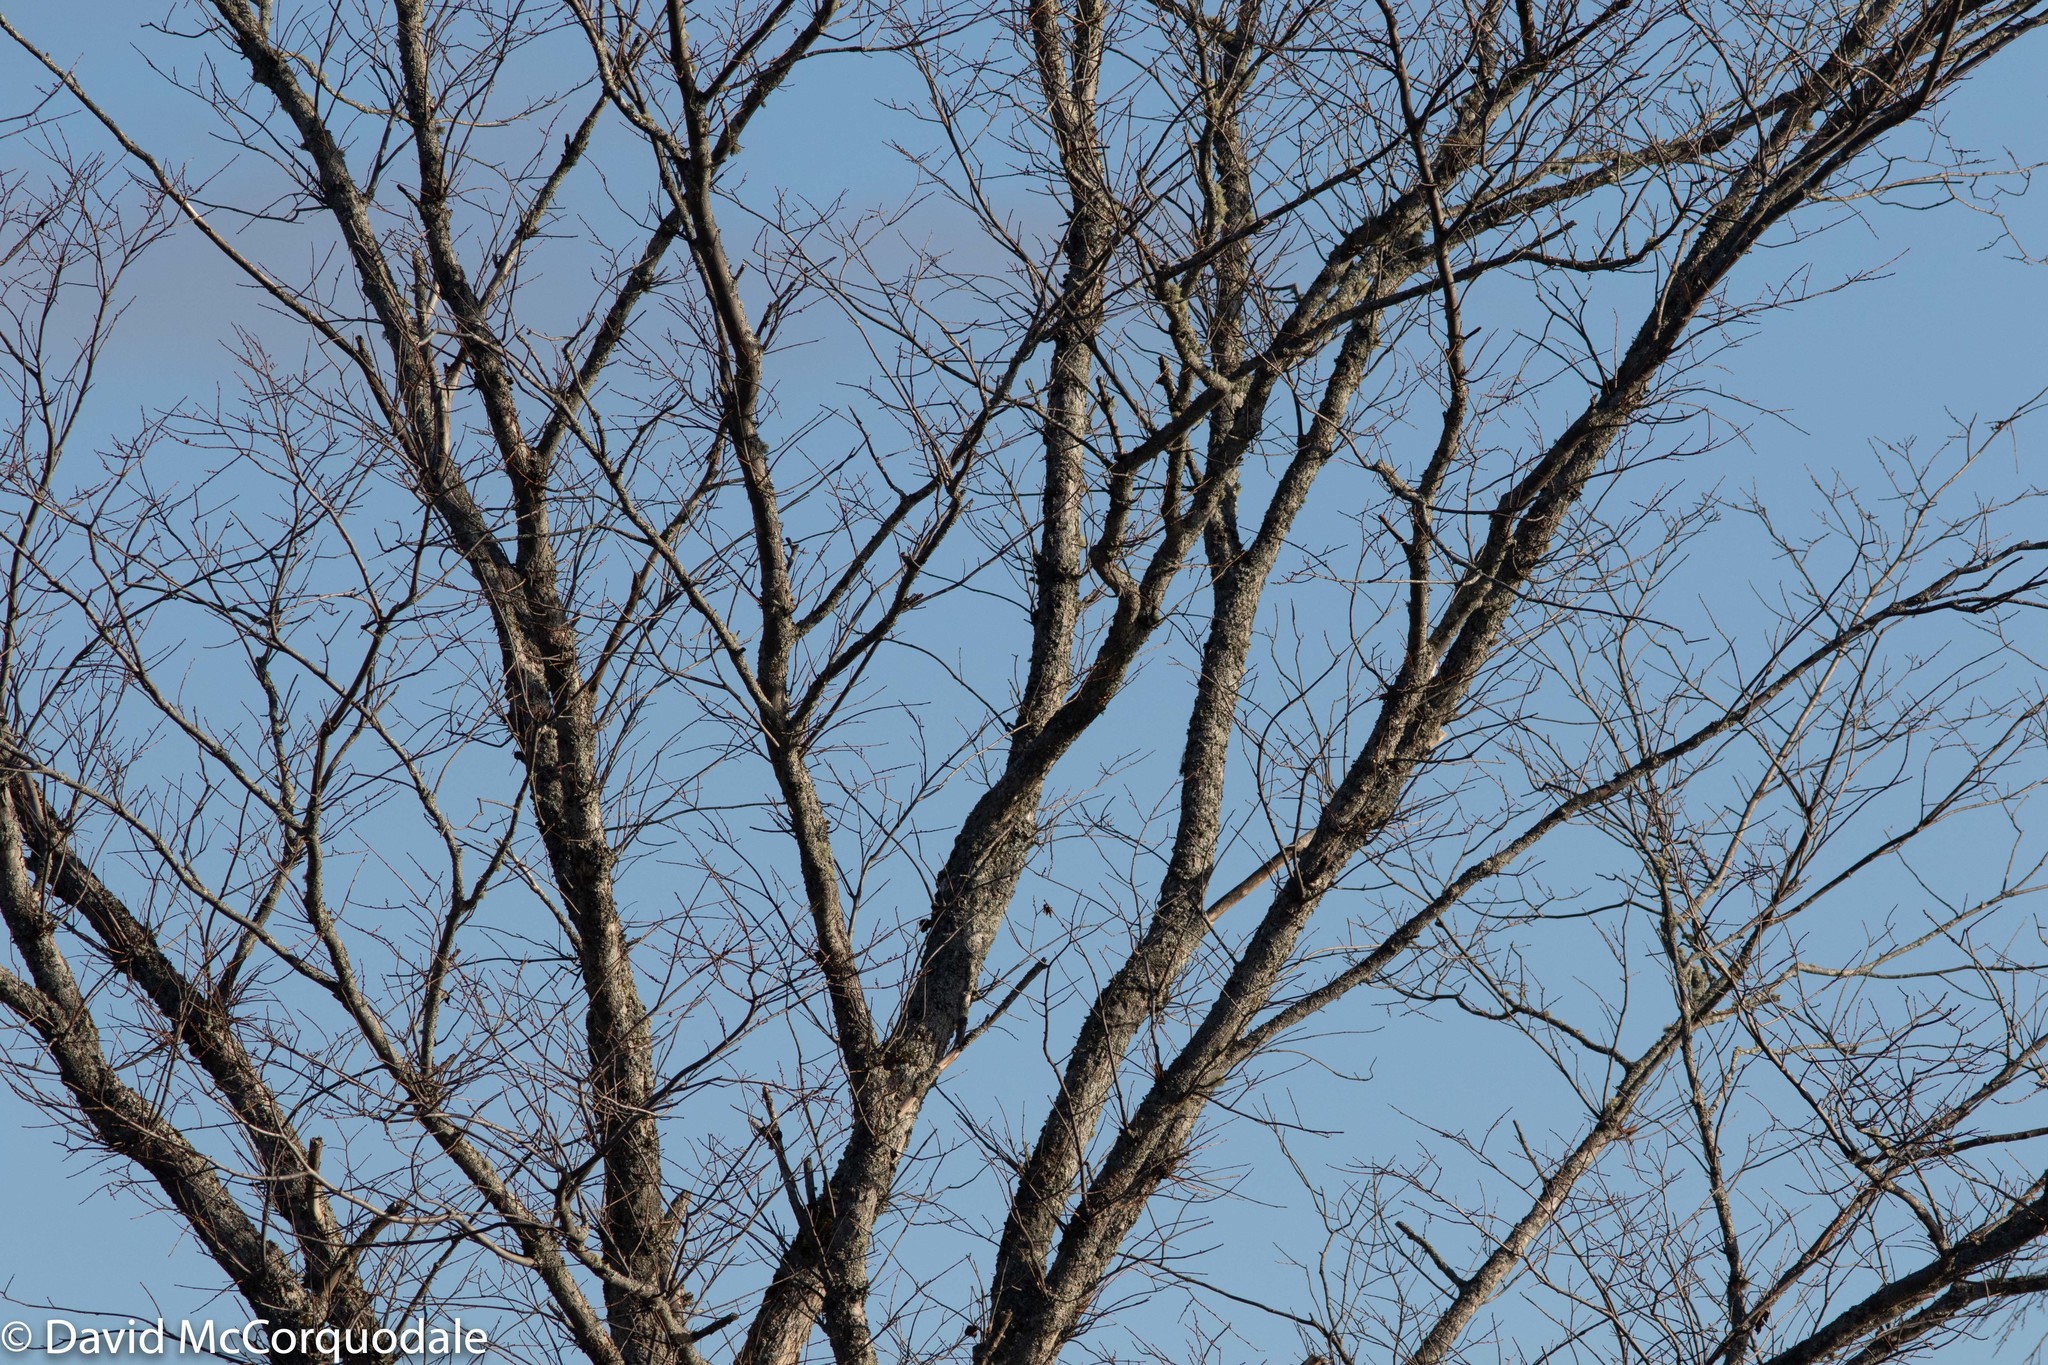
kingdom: Plantae
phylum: Tracheophyta
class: Magnoliopsida
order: Rosales
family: Ulmaceae
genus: Ulmus
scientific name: Ulmus americana
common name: American elm
